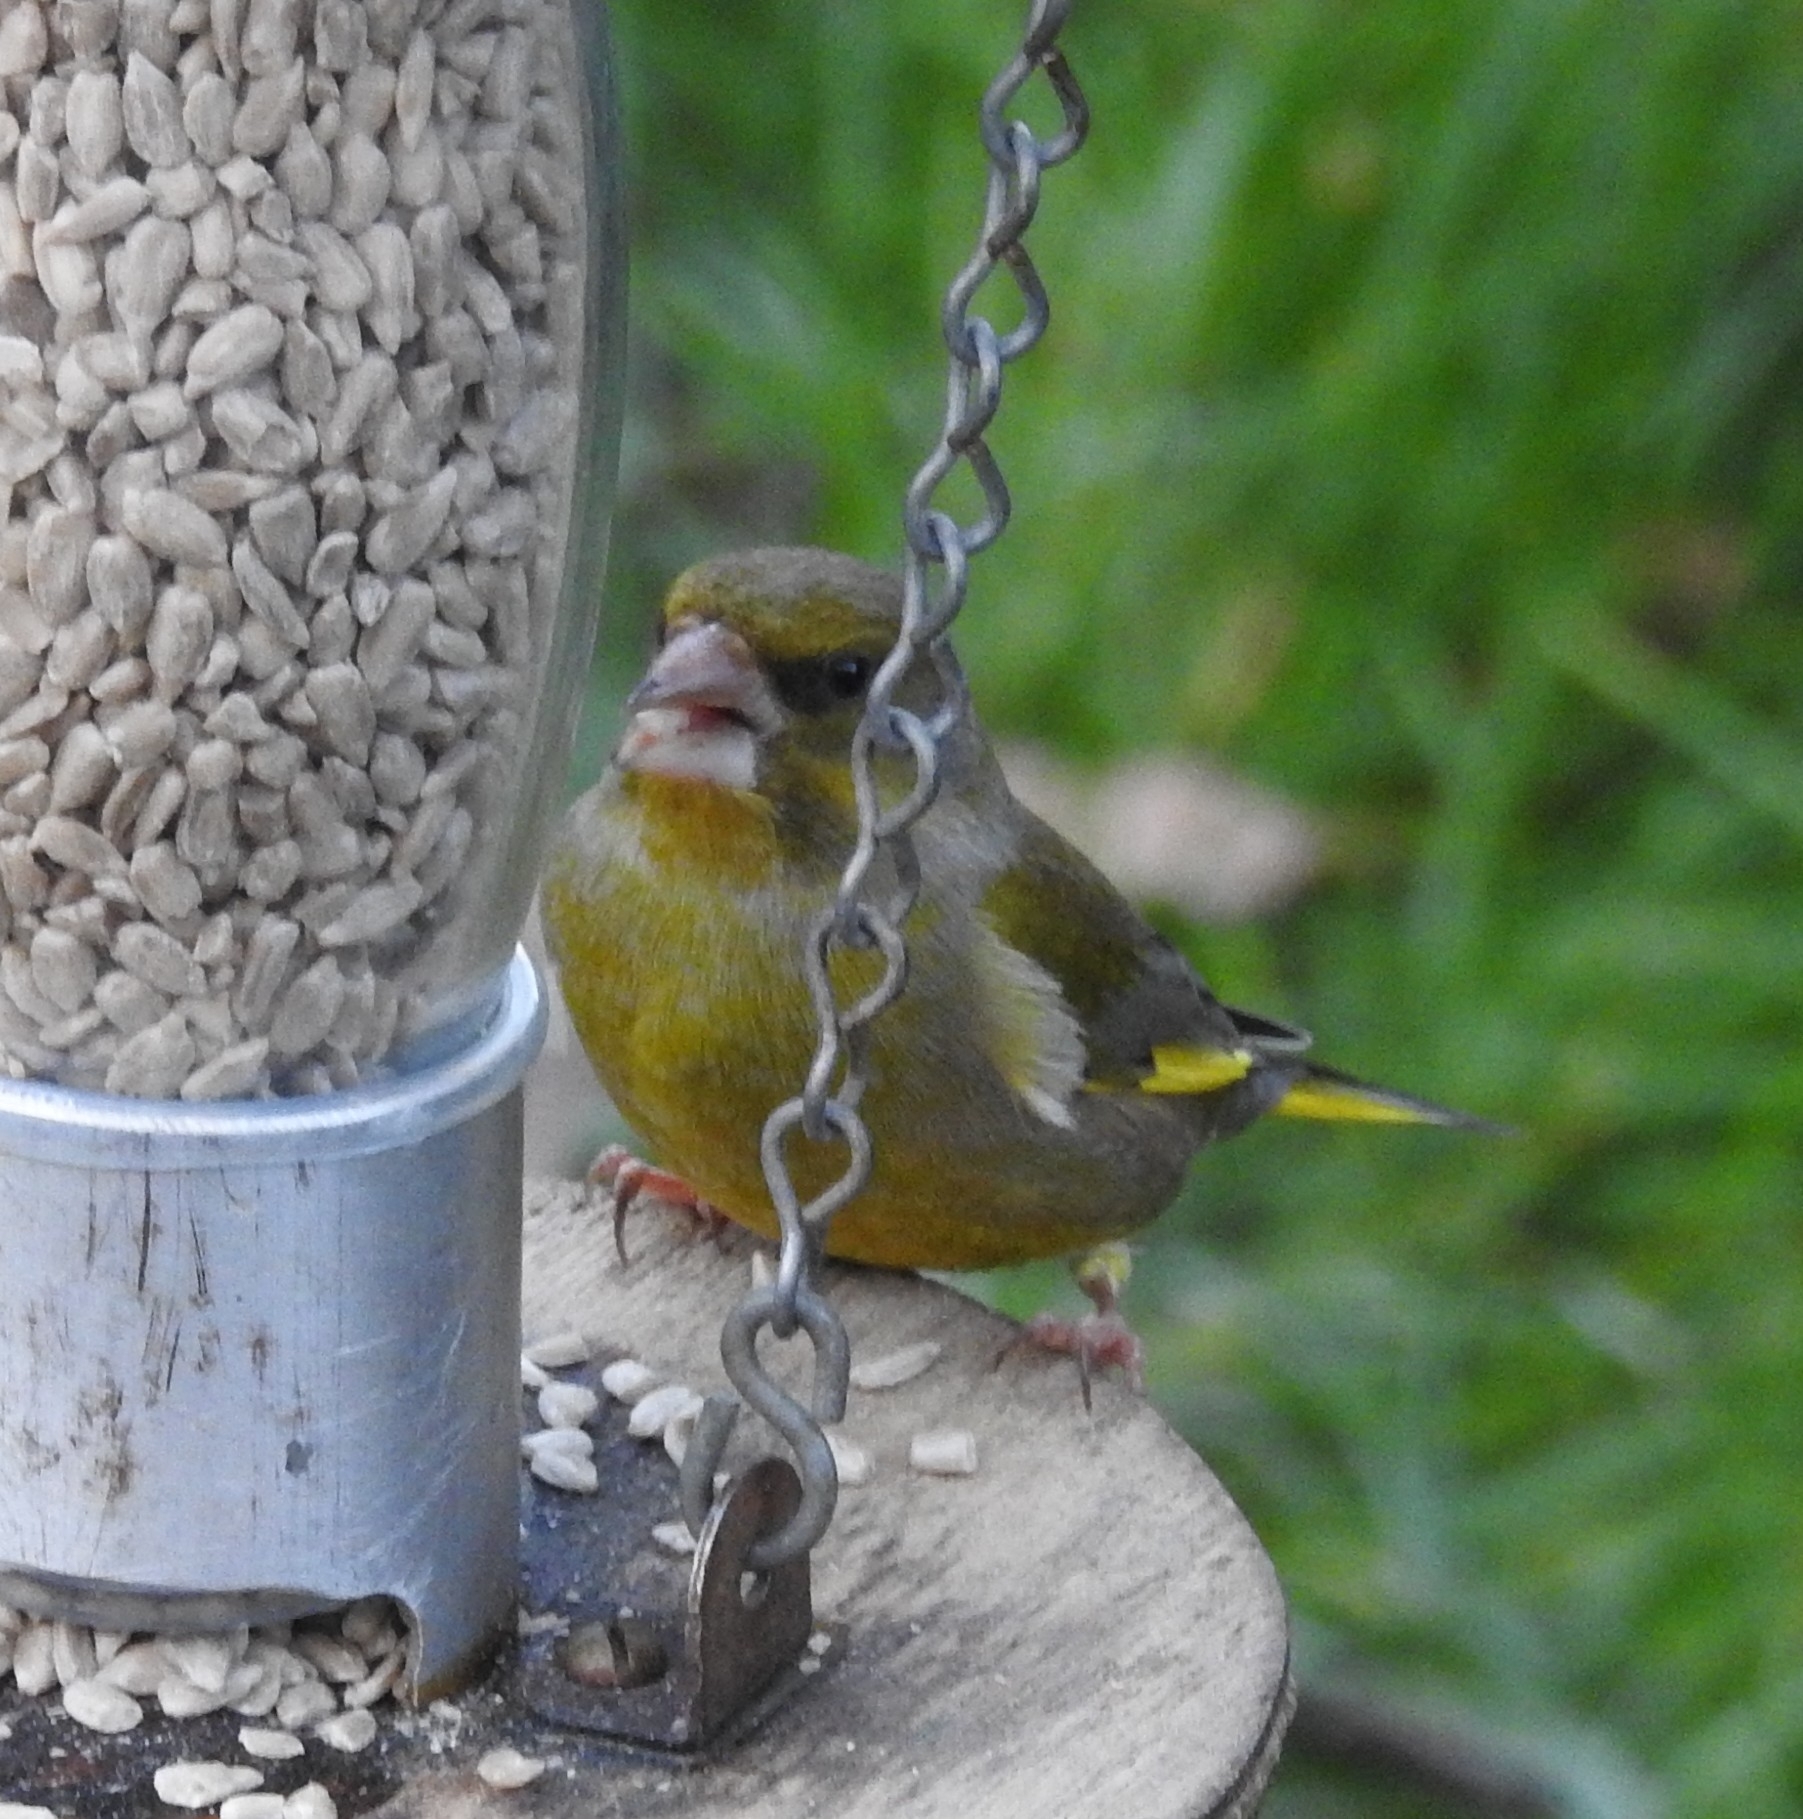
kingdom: Plantae
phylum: Tracheophyta
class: Liliopsida
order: Poales
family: Poaceae
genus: Chloris
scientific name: Chloris chloris
